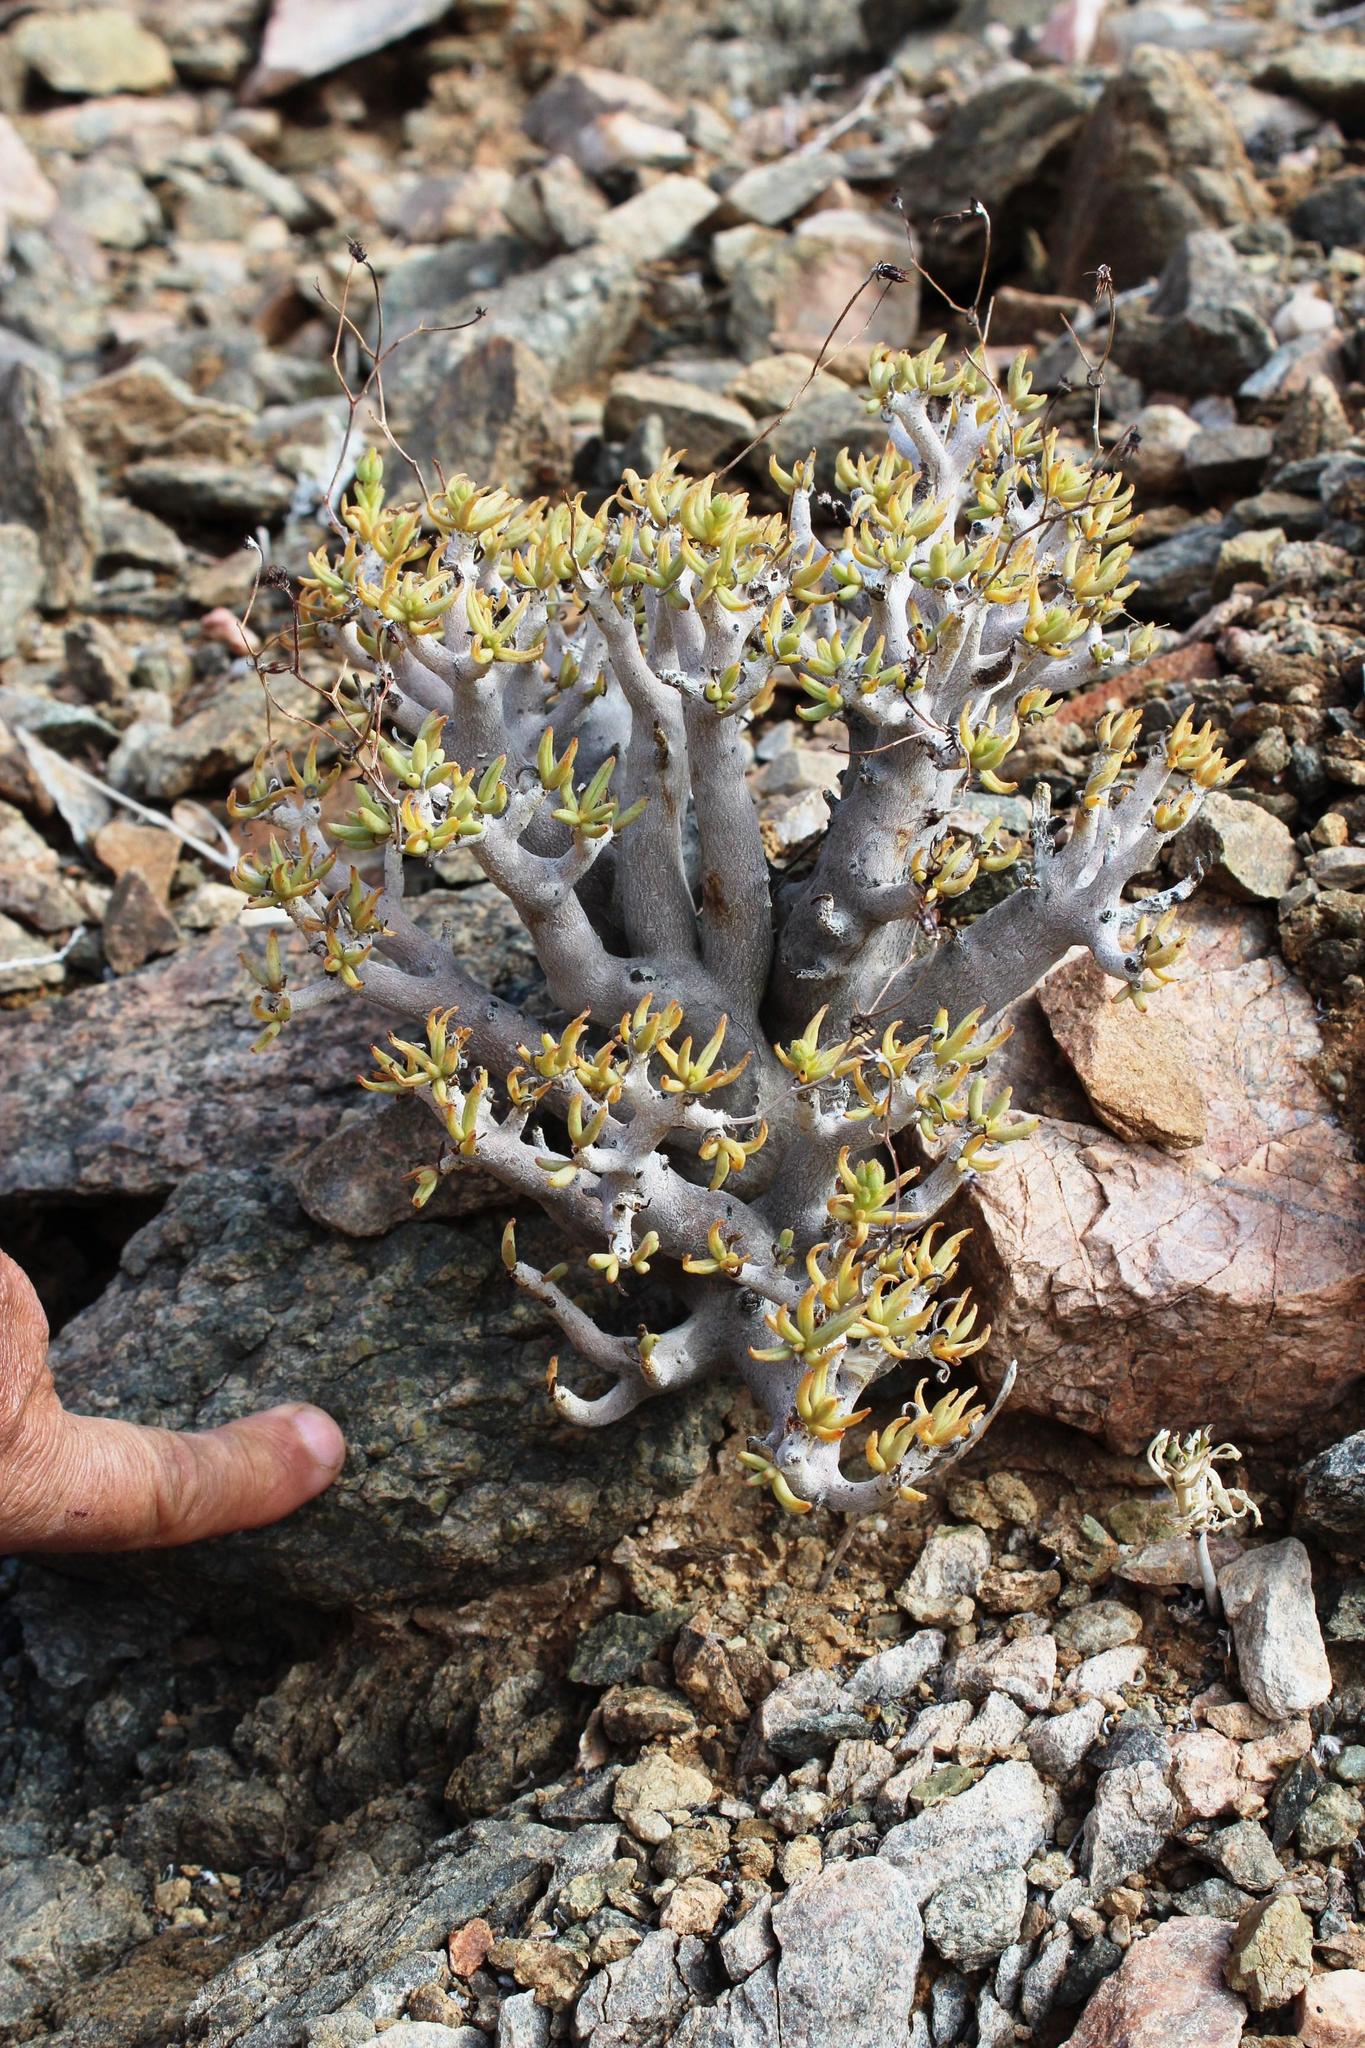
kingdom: Plantae
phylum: Tracheophyta
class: Magnoliopsida
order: Saxifragales
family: Crassulaceae
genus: Tylecodon
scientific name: Tylecodon hallii
